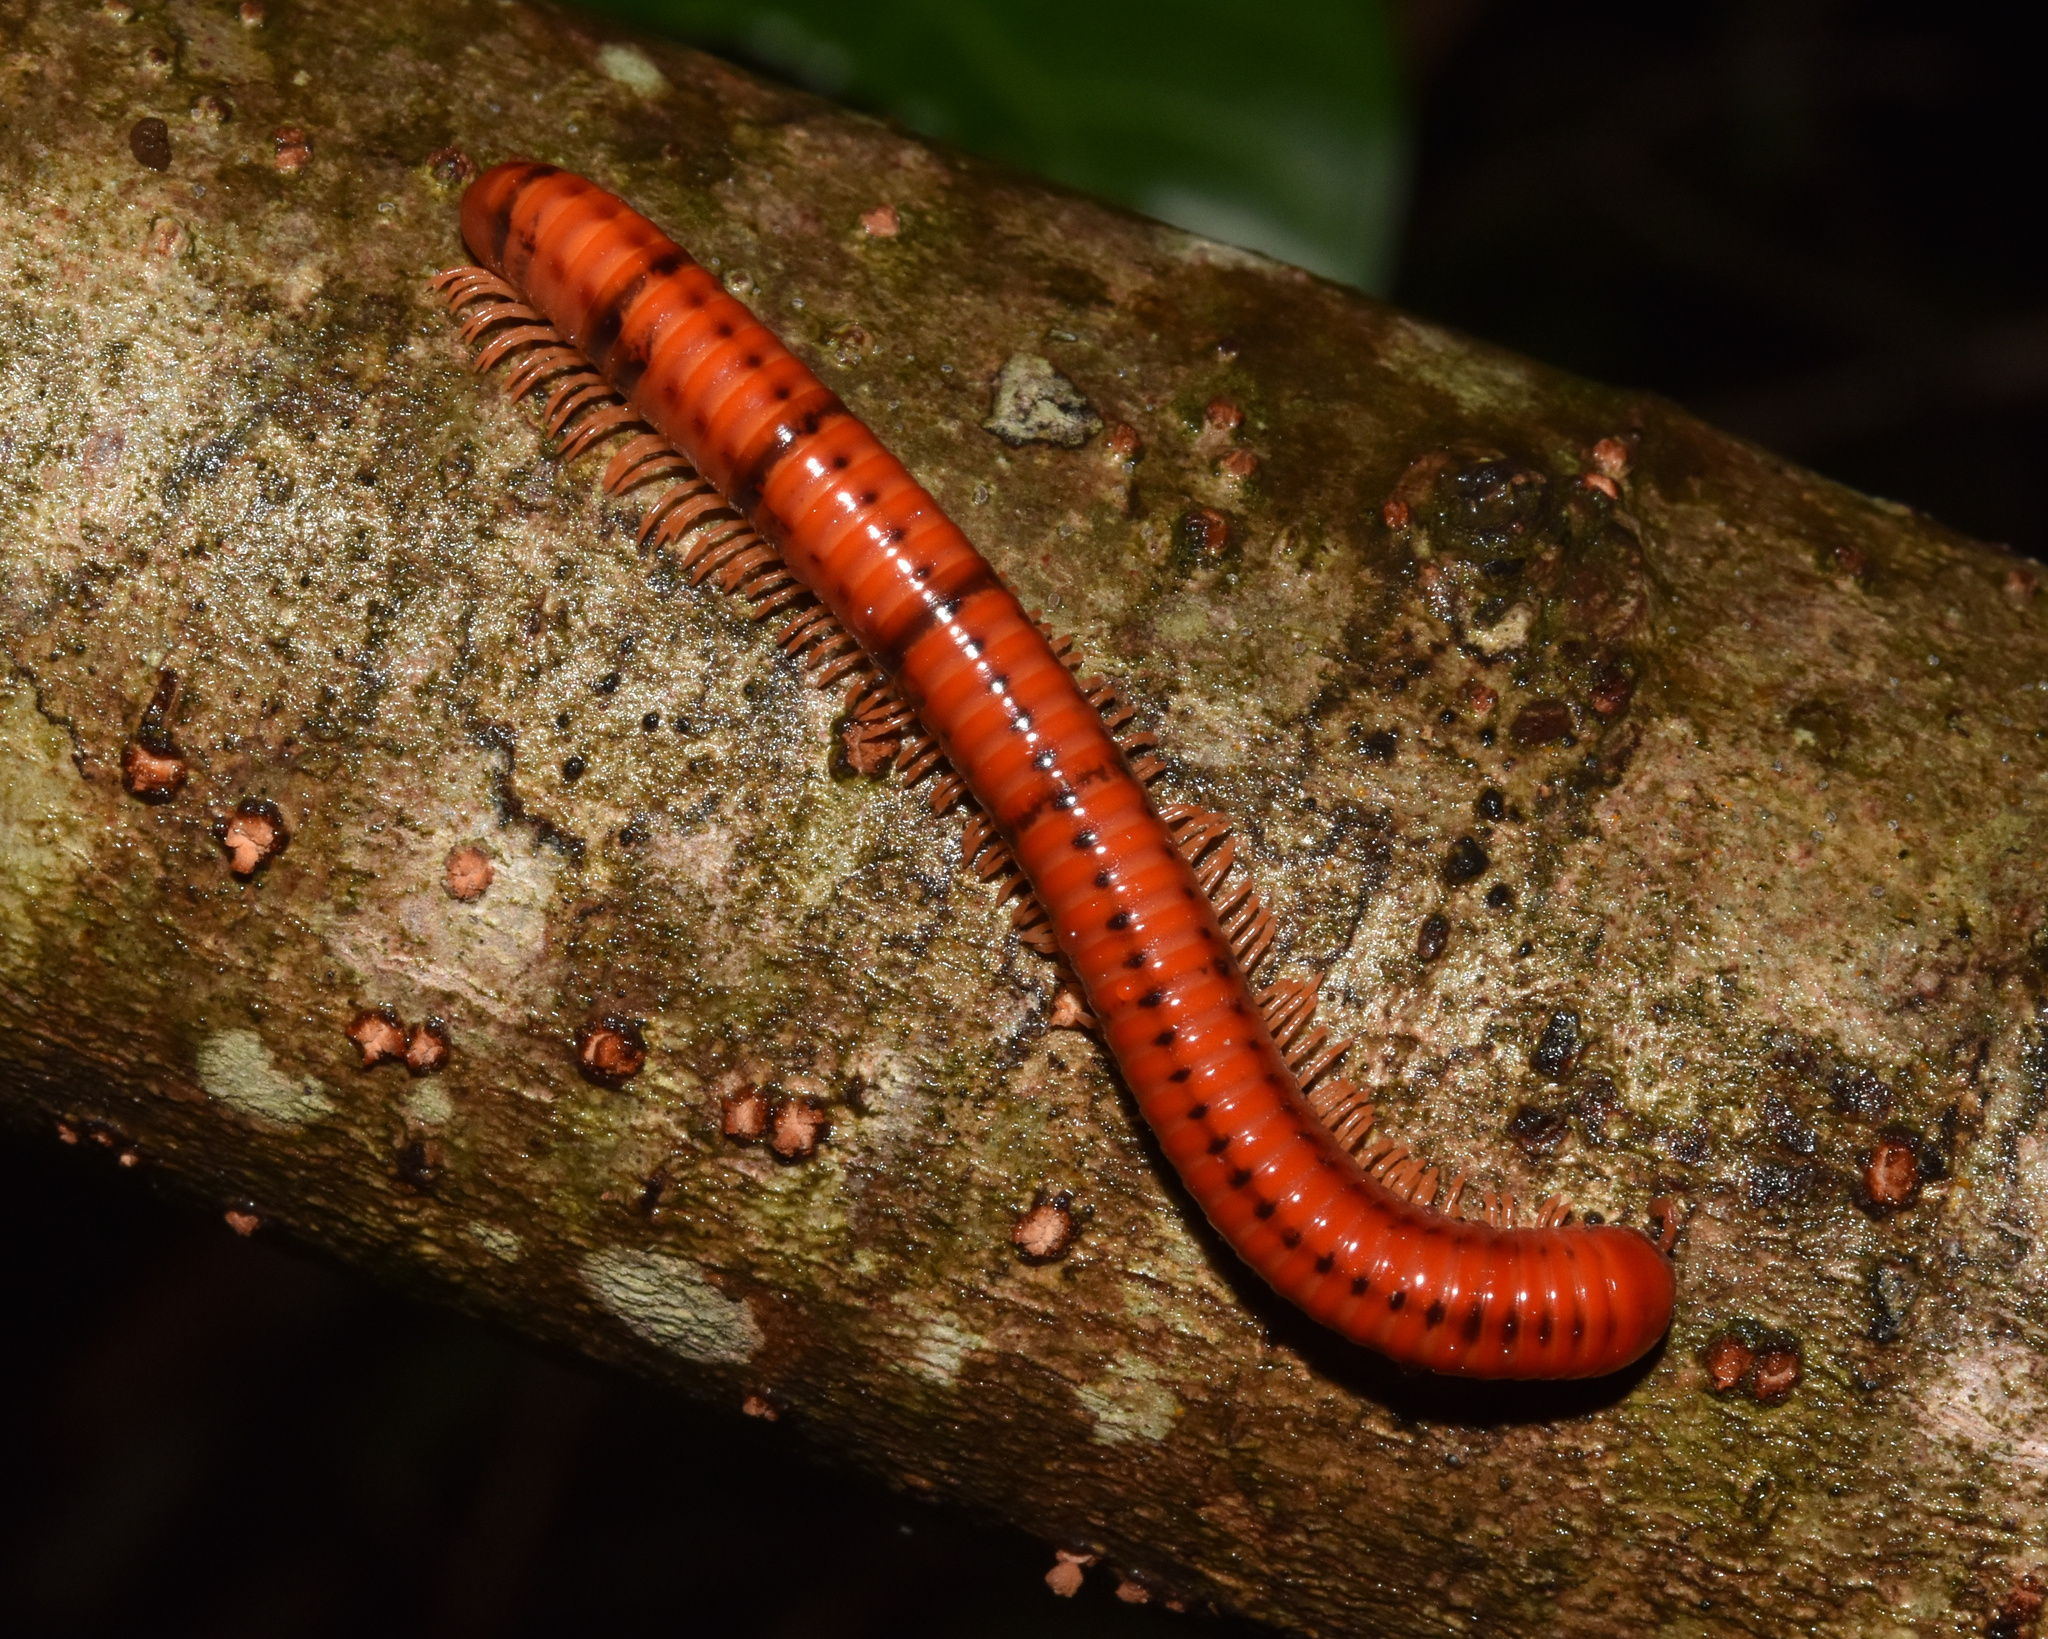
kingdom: Animalia
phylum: Arthropoda
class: Diplopoda
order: Spirobolida
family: Pachybolidae
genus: Centrobolus
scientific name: Centrobolus vastus
